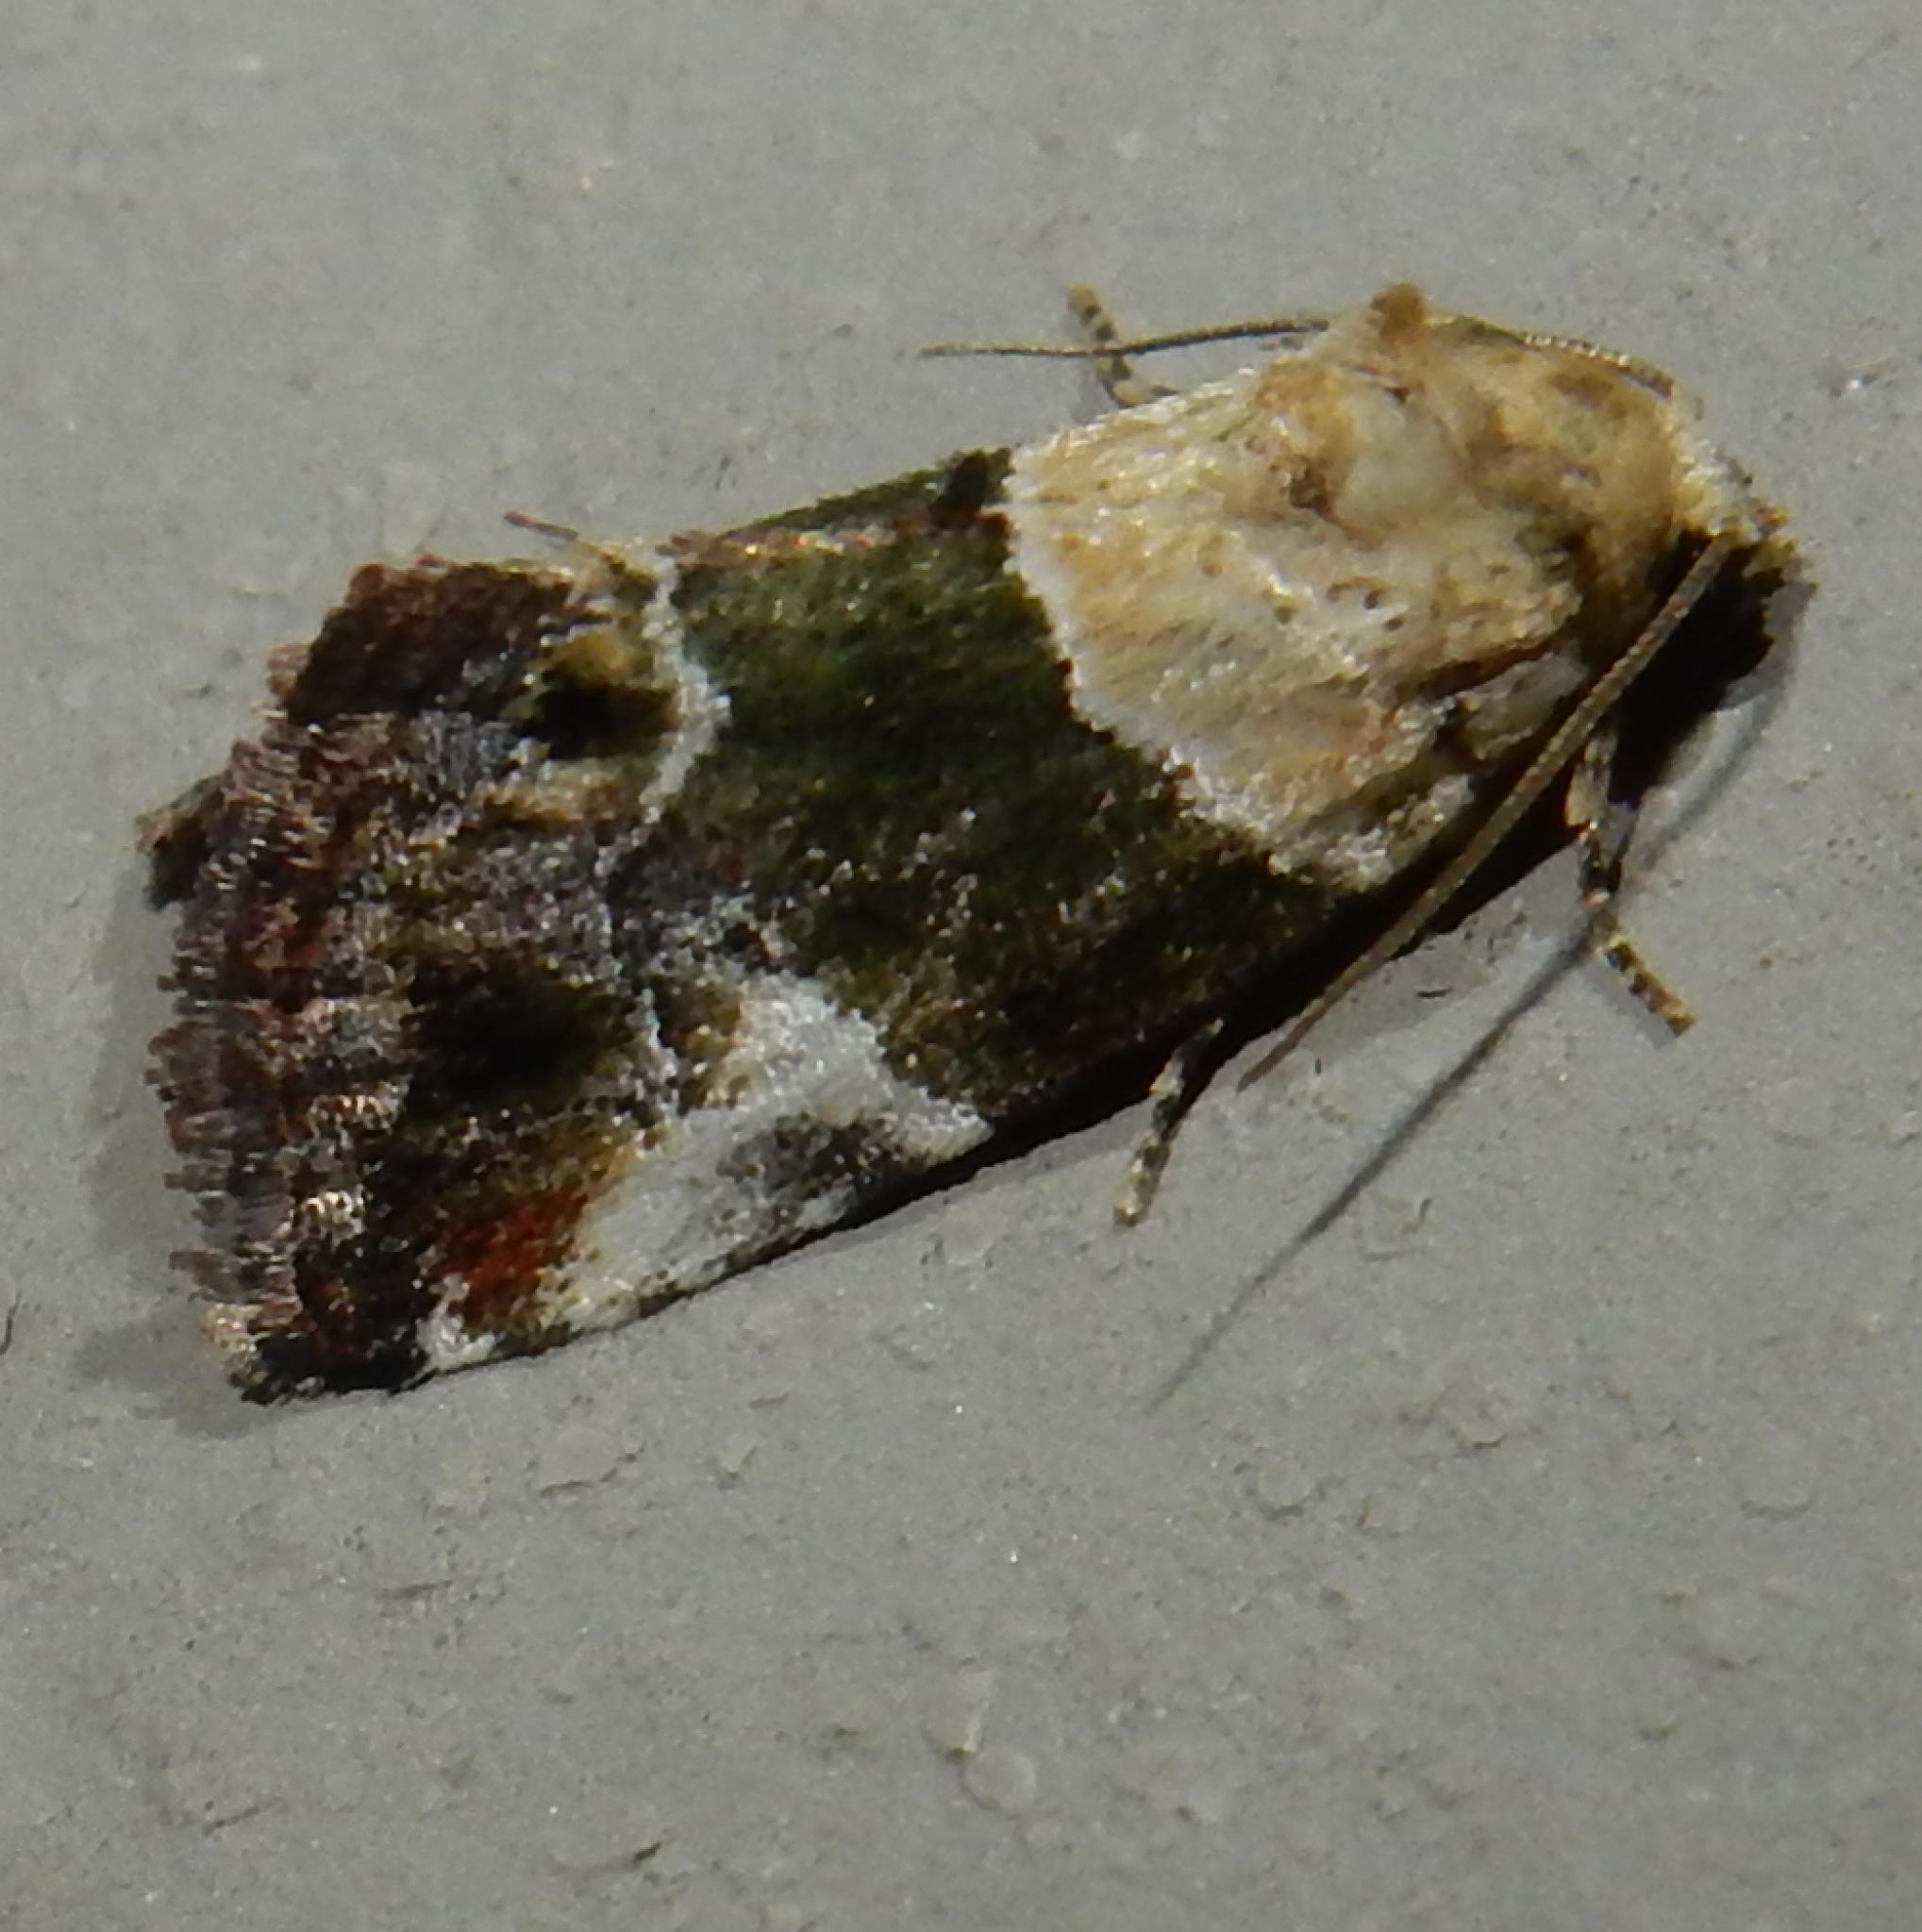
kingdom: Animalia
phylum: Arthropoda
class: Insecta
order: Lepidoptera
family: Noctuidae
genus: Hypercodia
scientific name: Hypercodia wheeleri
